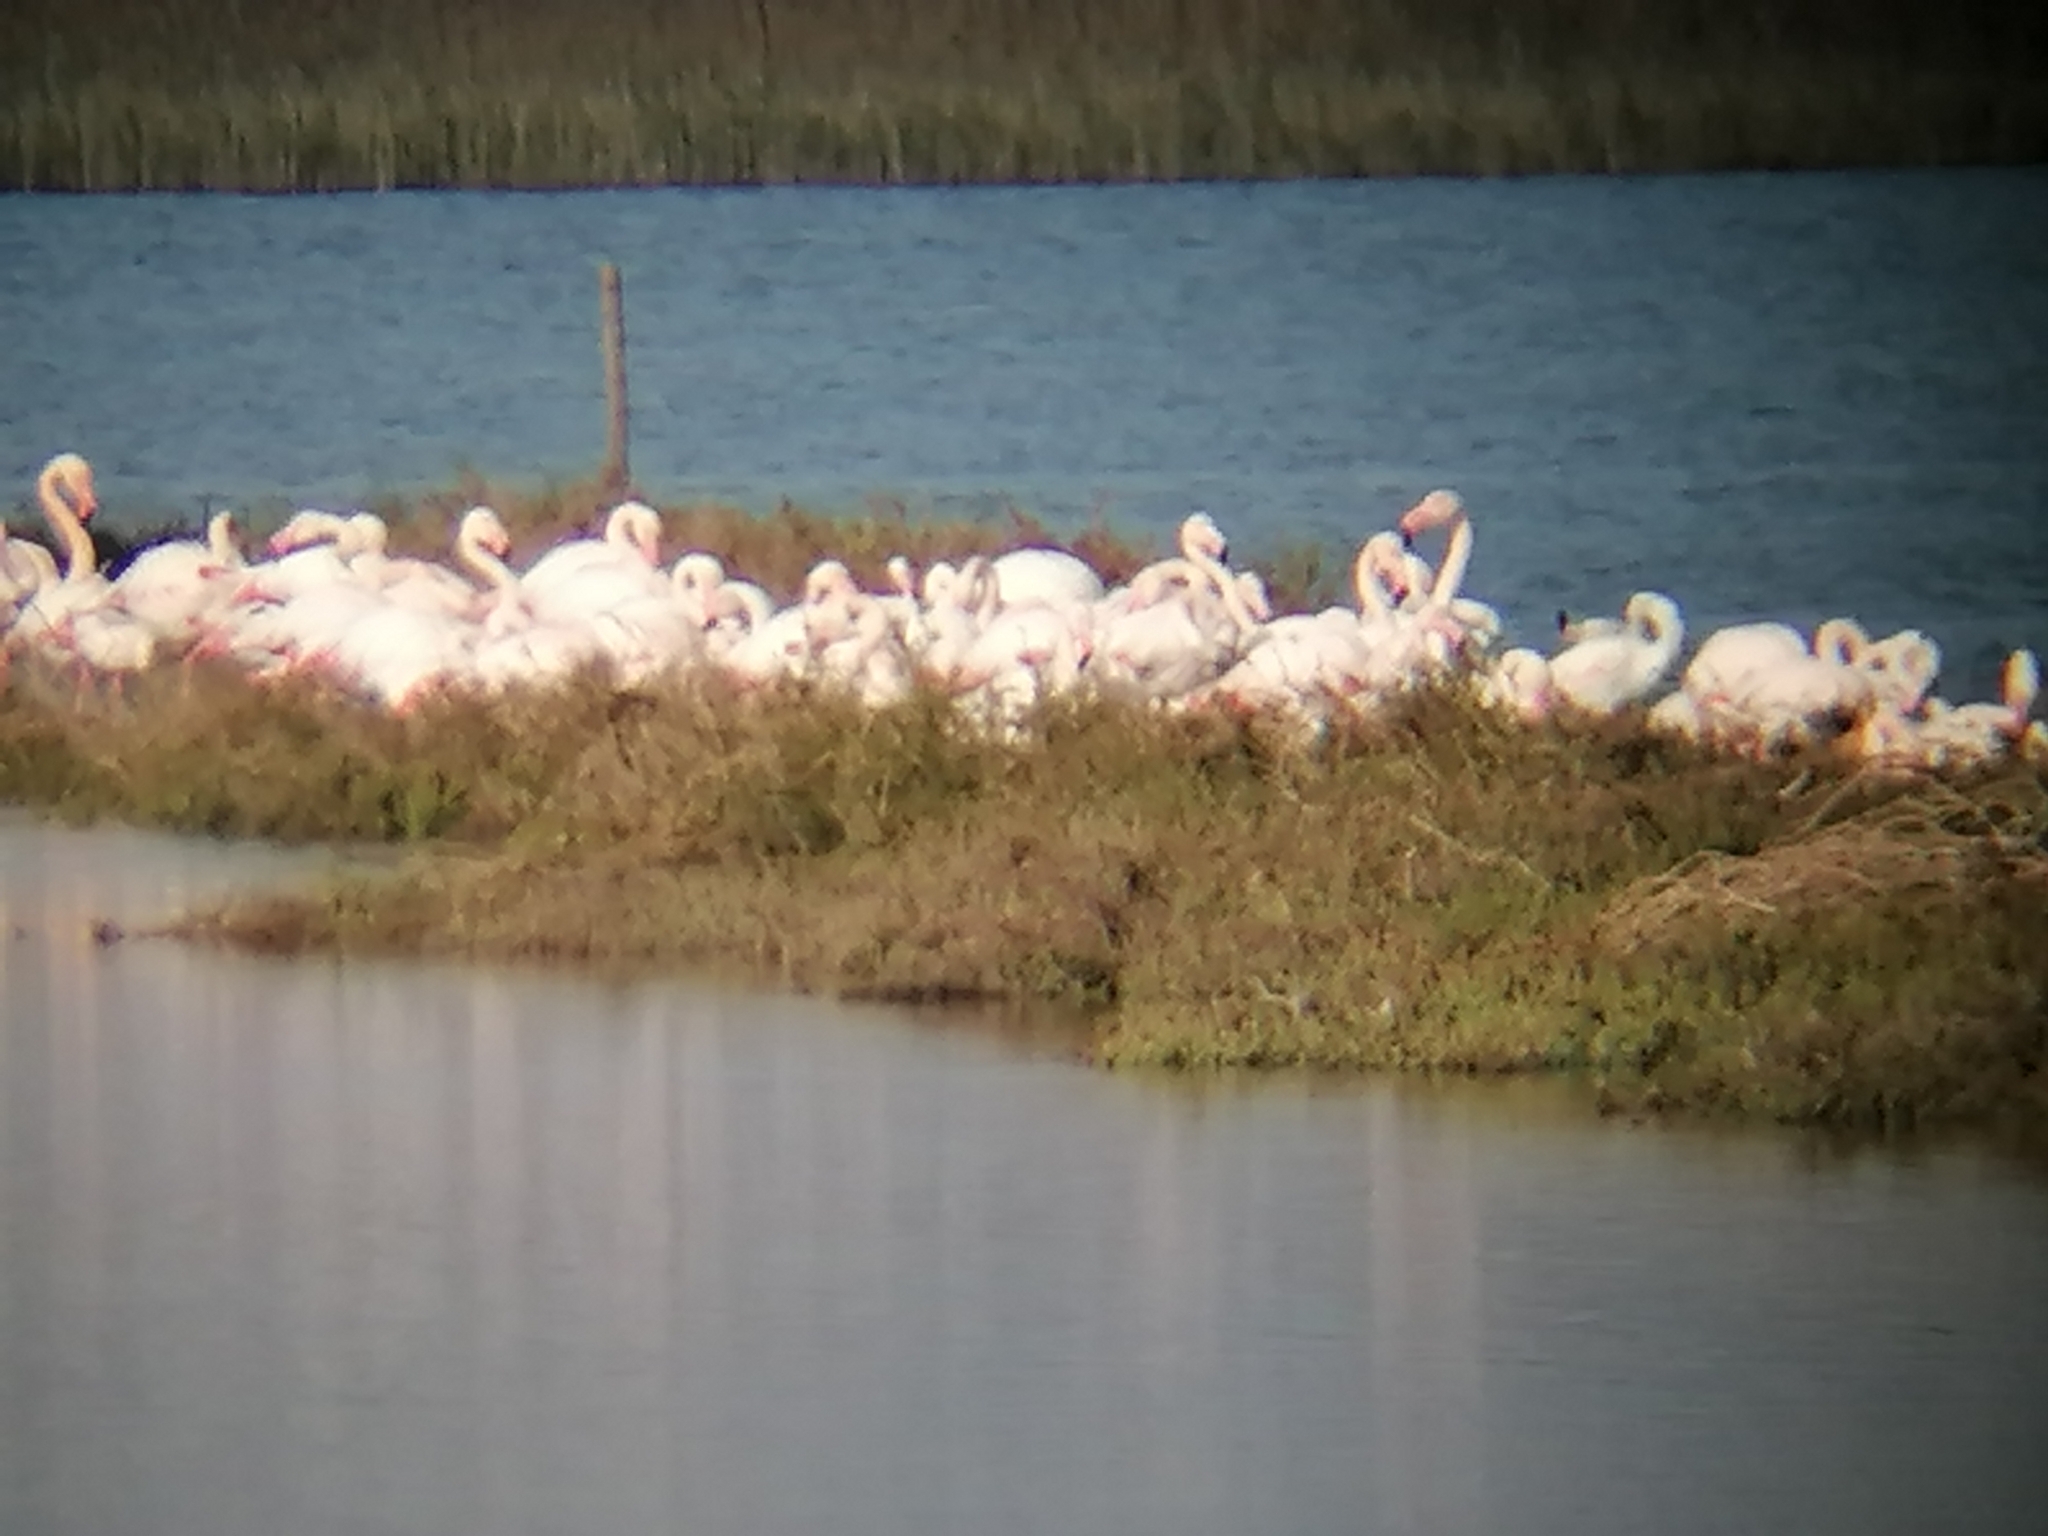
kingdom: Animalia
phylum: Chordata
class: Aves
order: Phoenicopteriformes
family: Phoenicopteridae
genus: Phoenicopterus
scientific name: Phoenicopterus roseus
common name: Greater flamingo
